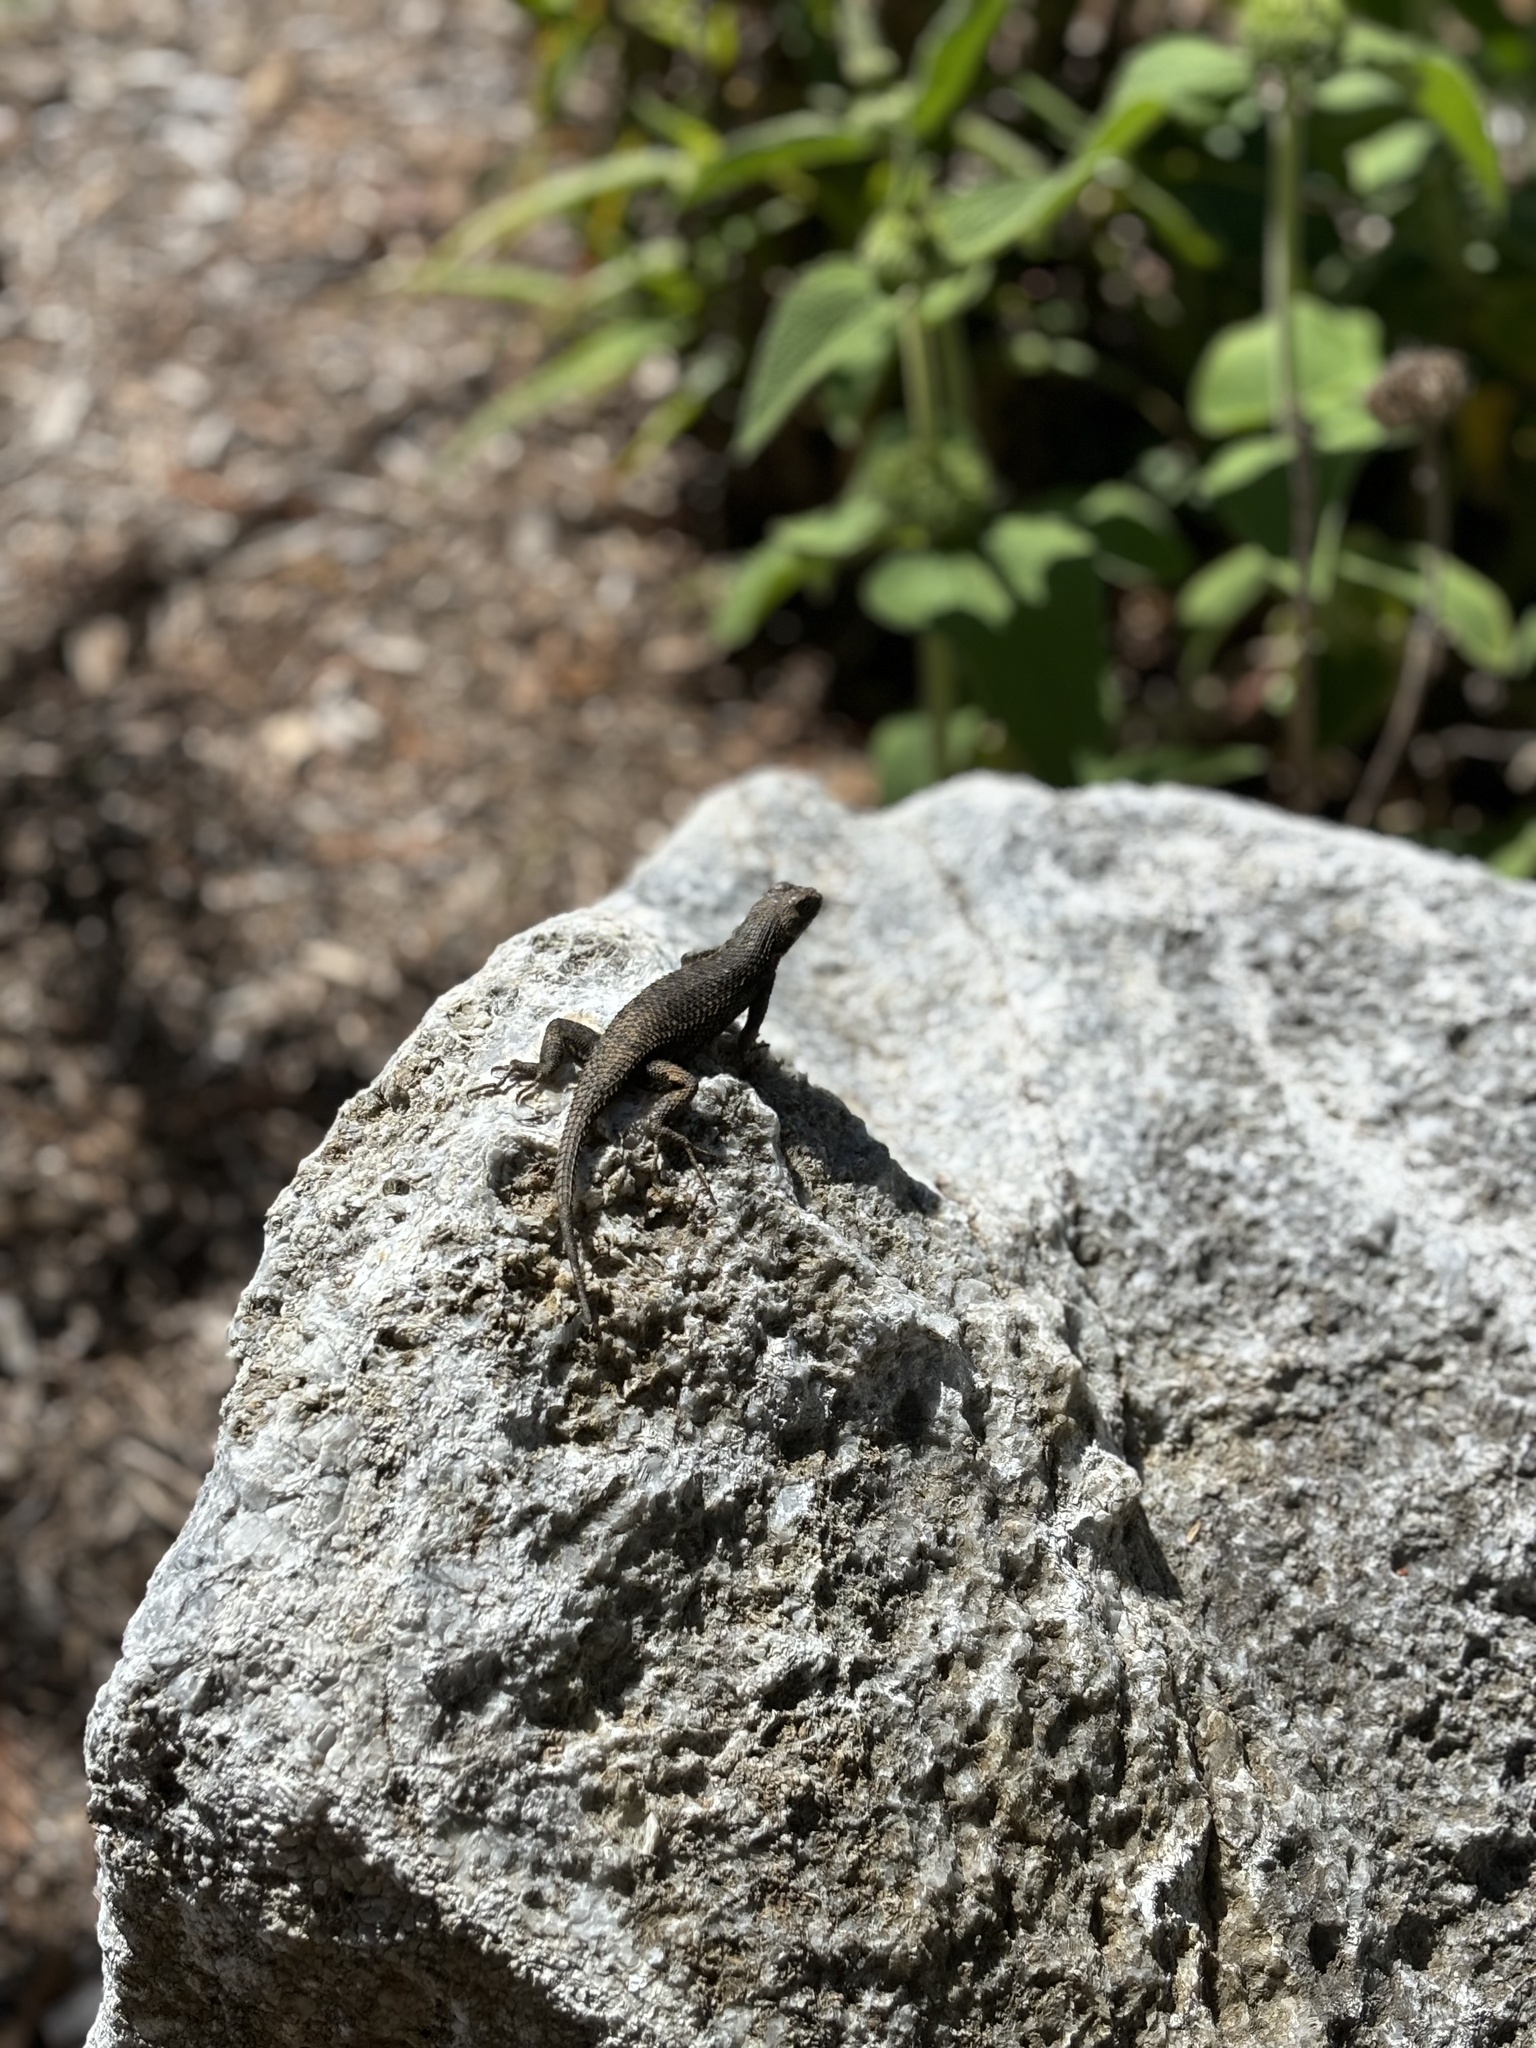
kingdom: Animalia
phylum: Chordata
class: Squamata
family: Phrynosomatidae
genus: Sceloporus
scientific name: Sceloporus occidentalis
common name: Western fence lizard
